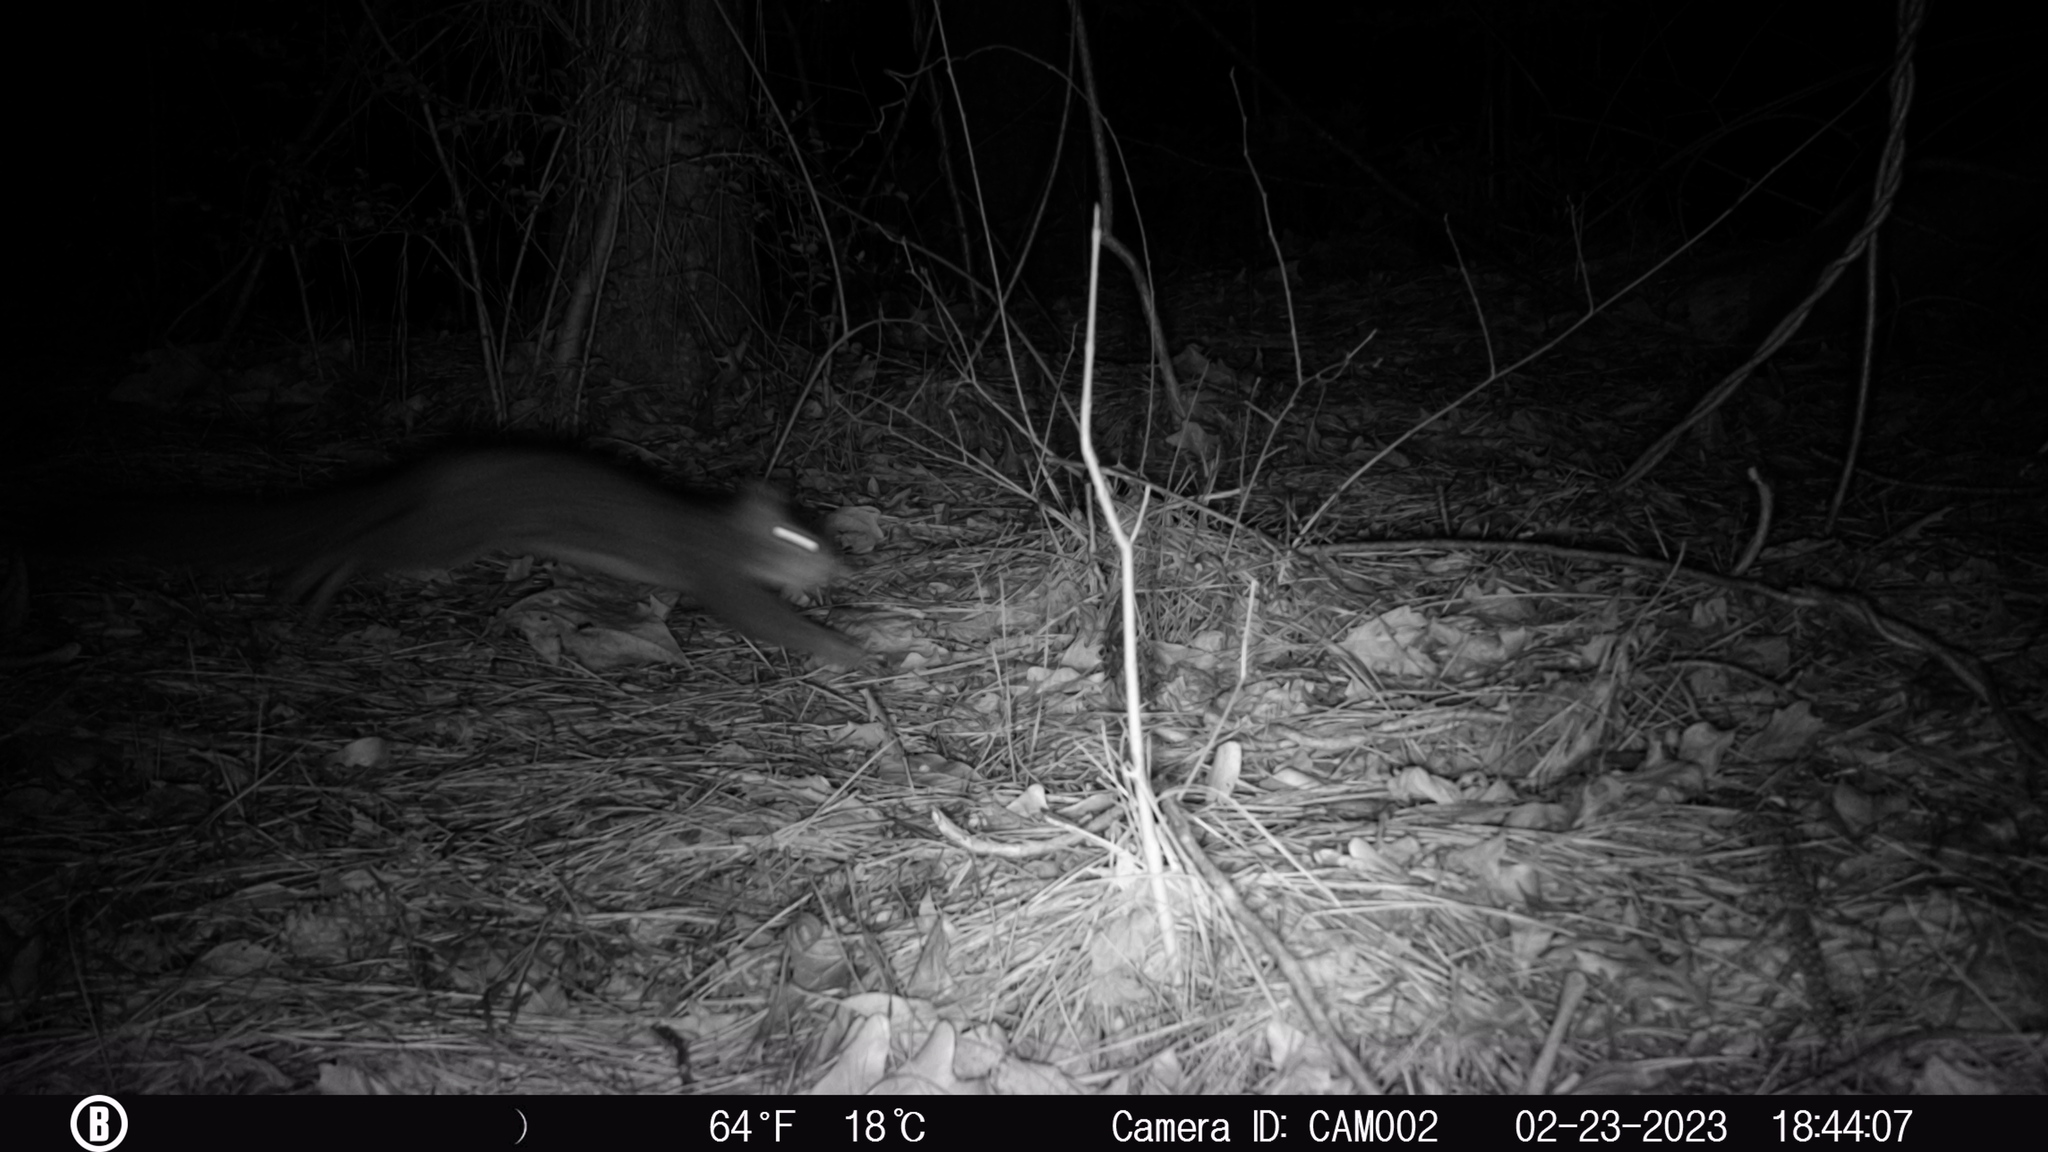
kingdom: Animalia
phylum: Chordata
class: Mammalia
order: Rodentia
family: Sciuridae
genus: Sciurus
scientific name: Sciurus carolinensis
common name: Eastern gray squirrel
